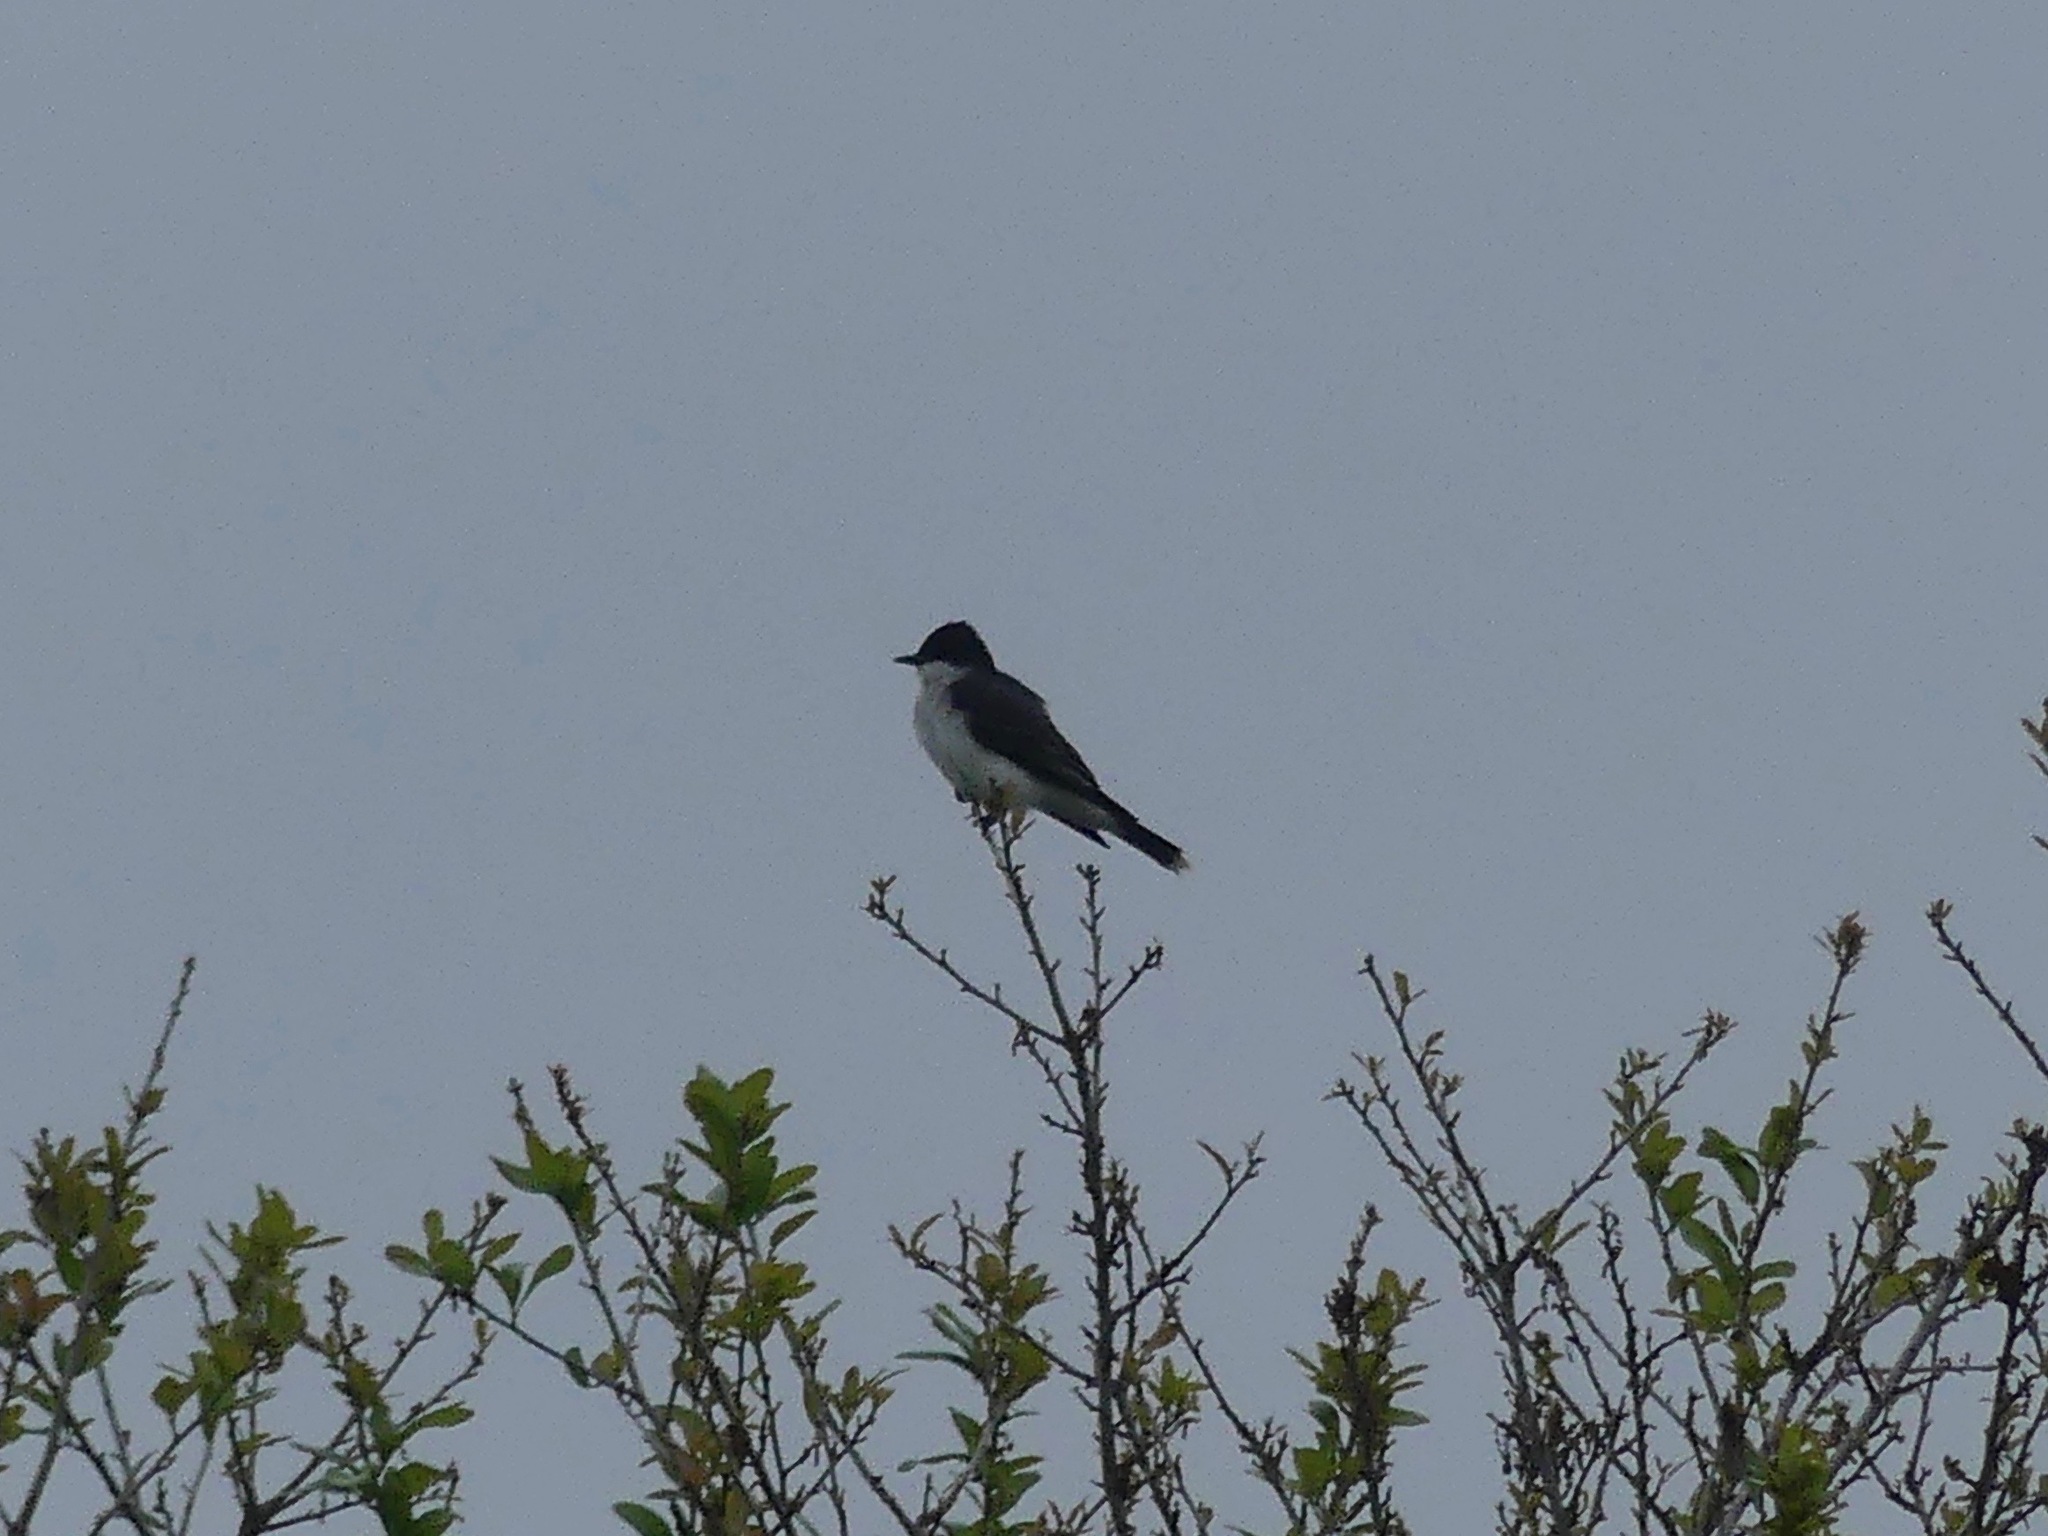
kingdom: Animalia
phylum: Chordata
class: Aves
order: Passeriformes
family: Tyrannidae
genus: Tyrannus
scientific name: Tyrannus tyrannus
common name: Eastern kingbird
